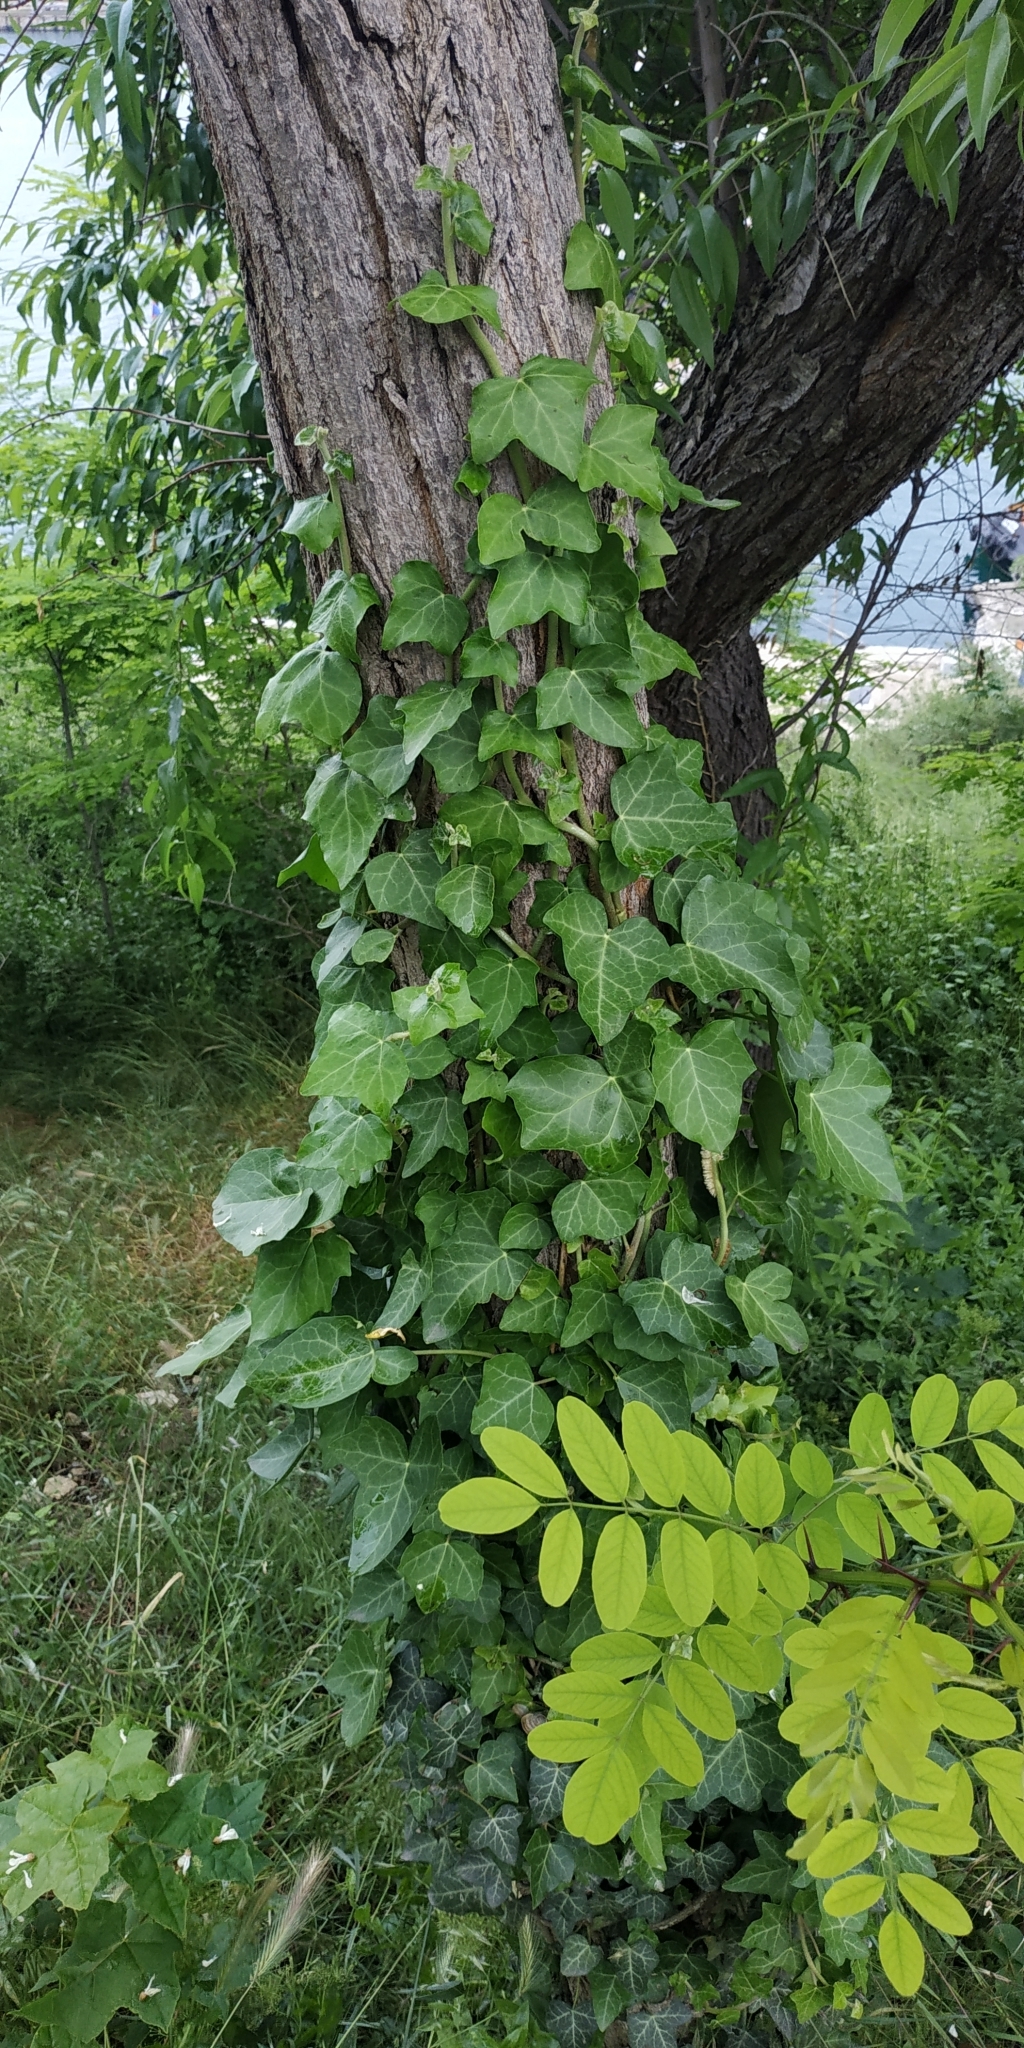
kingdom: Plantae
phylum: Tracheophyta
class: Magnoliopsida
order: Apiales
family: Araliaceae
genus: Hedera
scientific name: Hedera helix
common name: Ivy
